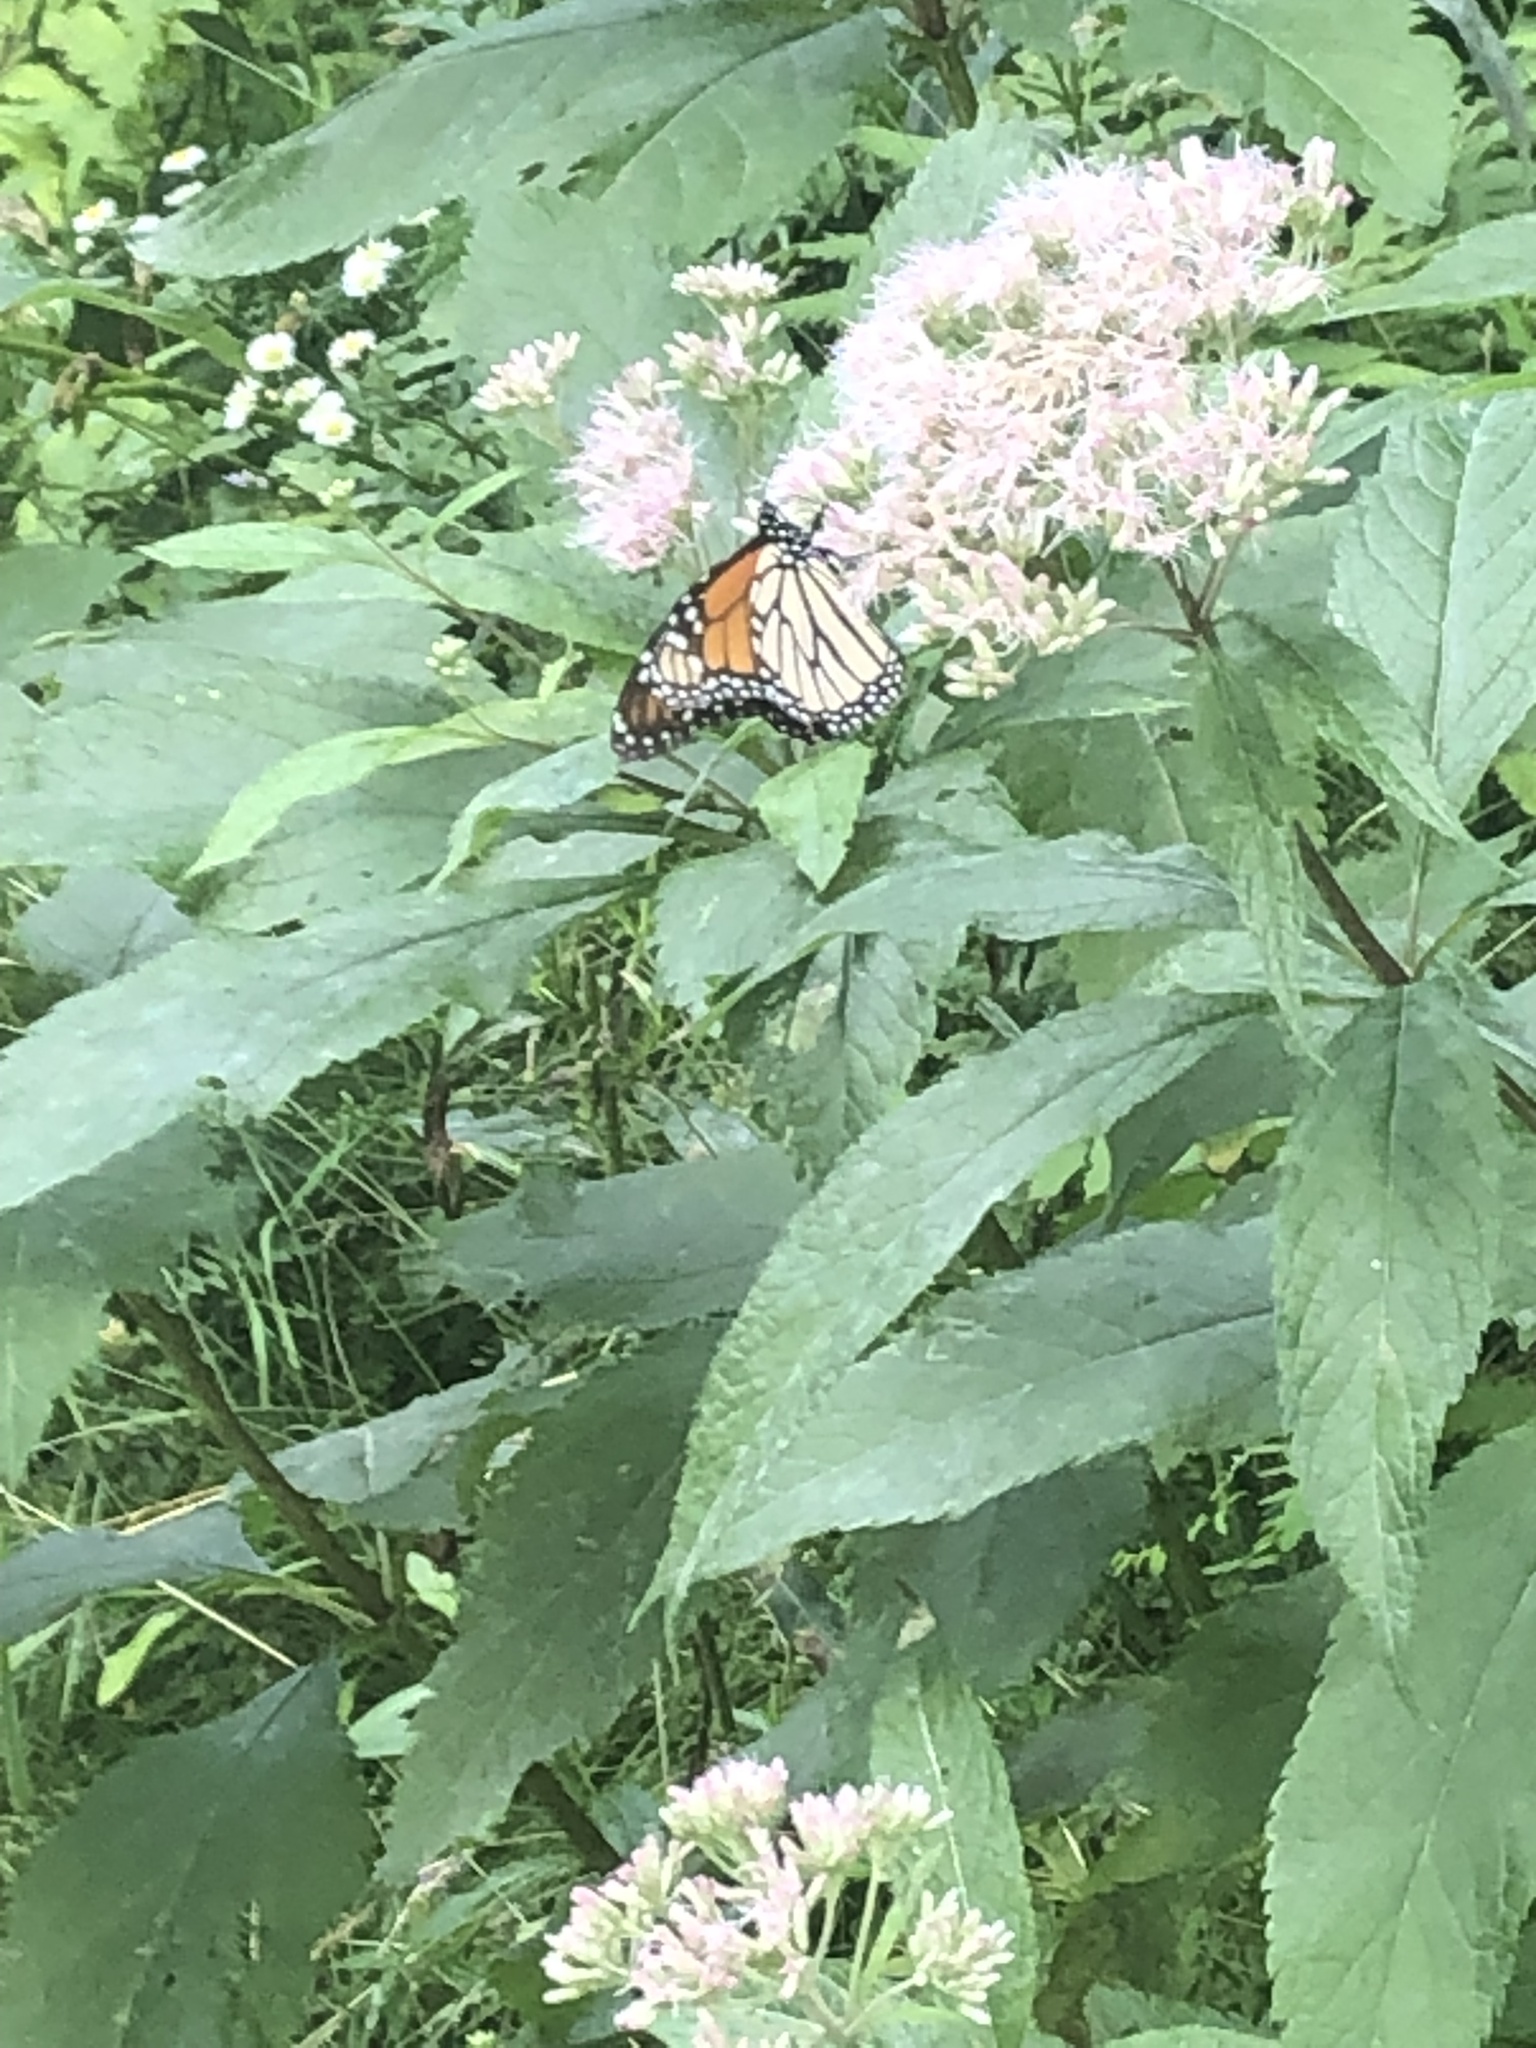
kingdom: Animalia
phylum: Arthropoda
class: Insecta
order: Lepidoptera
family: Nymphalidae
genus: Danaus
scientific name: Danaus plexippus
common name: Monarch
